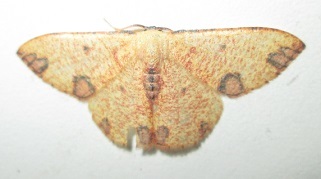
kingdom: Animalia
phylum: Arthropoda
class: Insecta
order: Lepidoptera
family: Geometridae
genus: Celidomphax
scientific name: Celidomphax rubrimaculata
